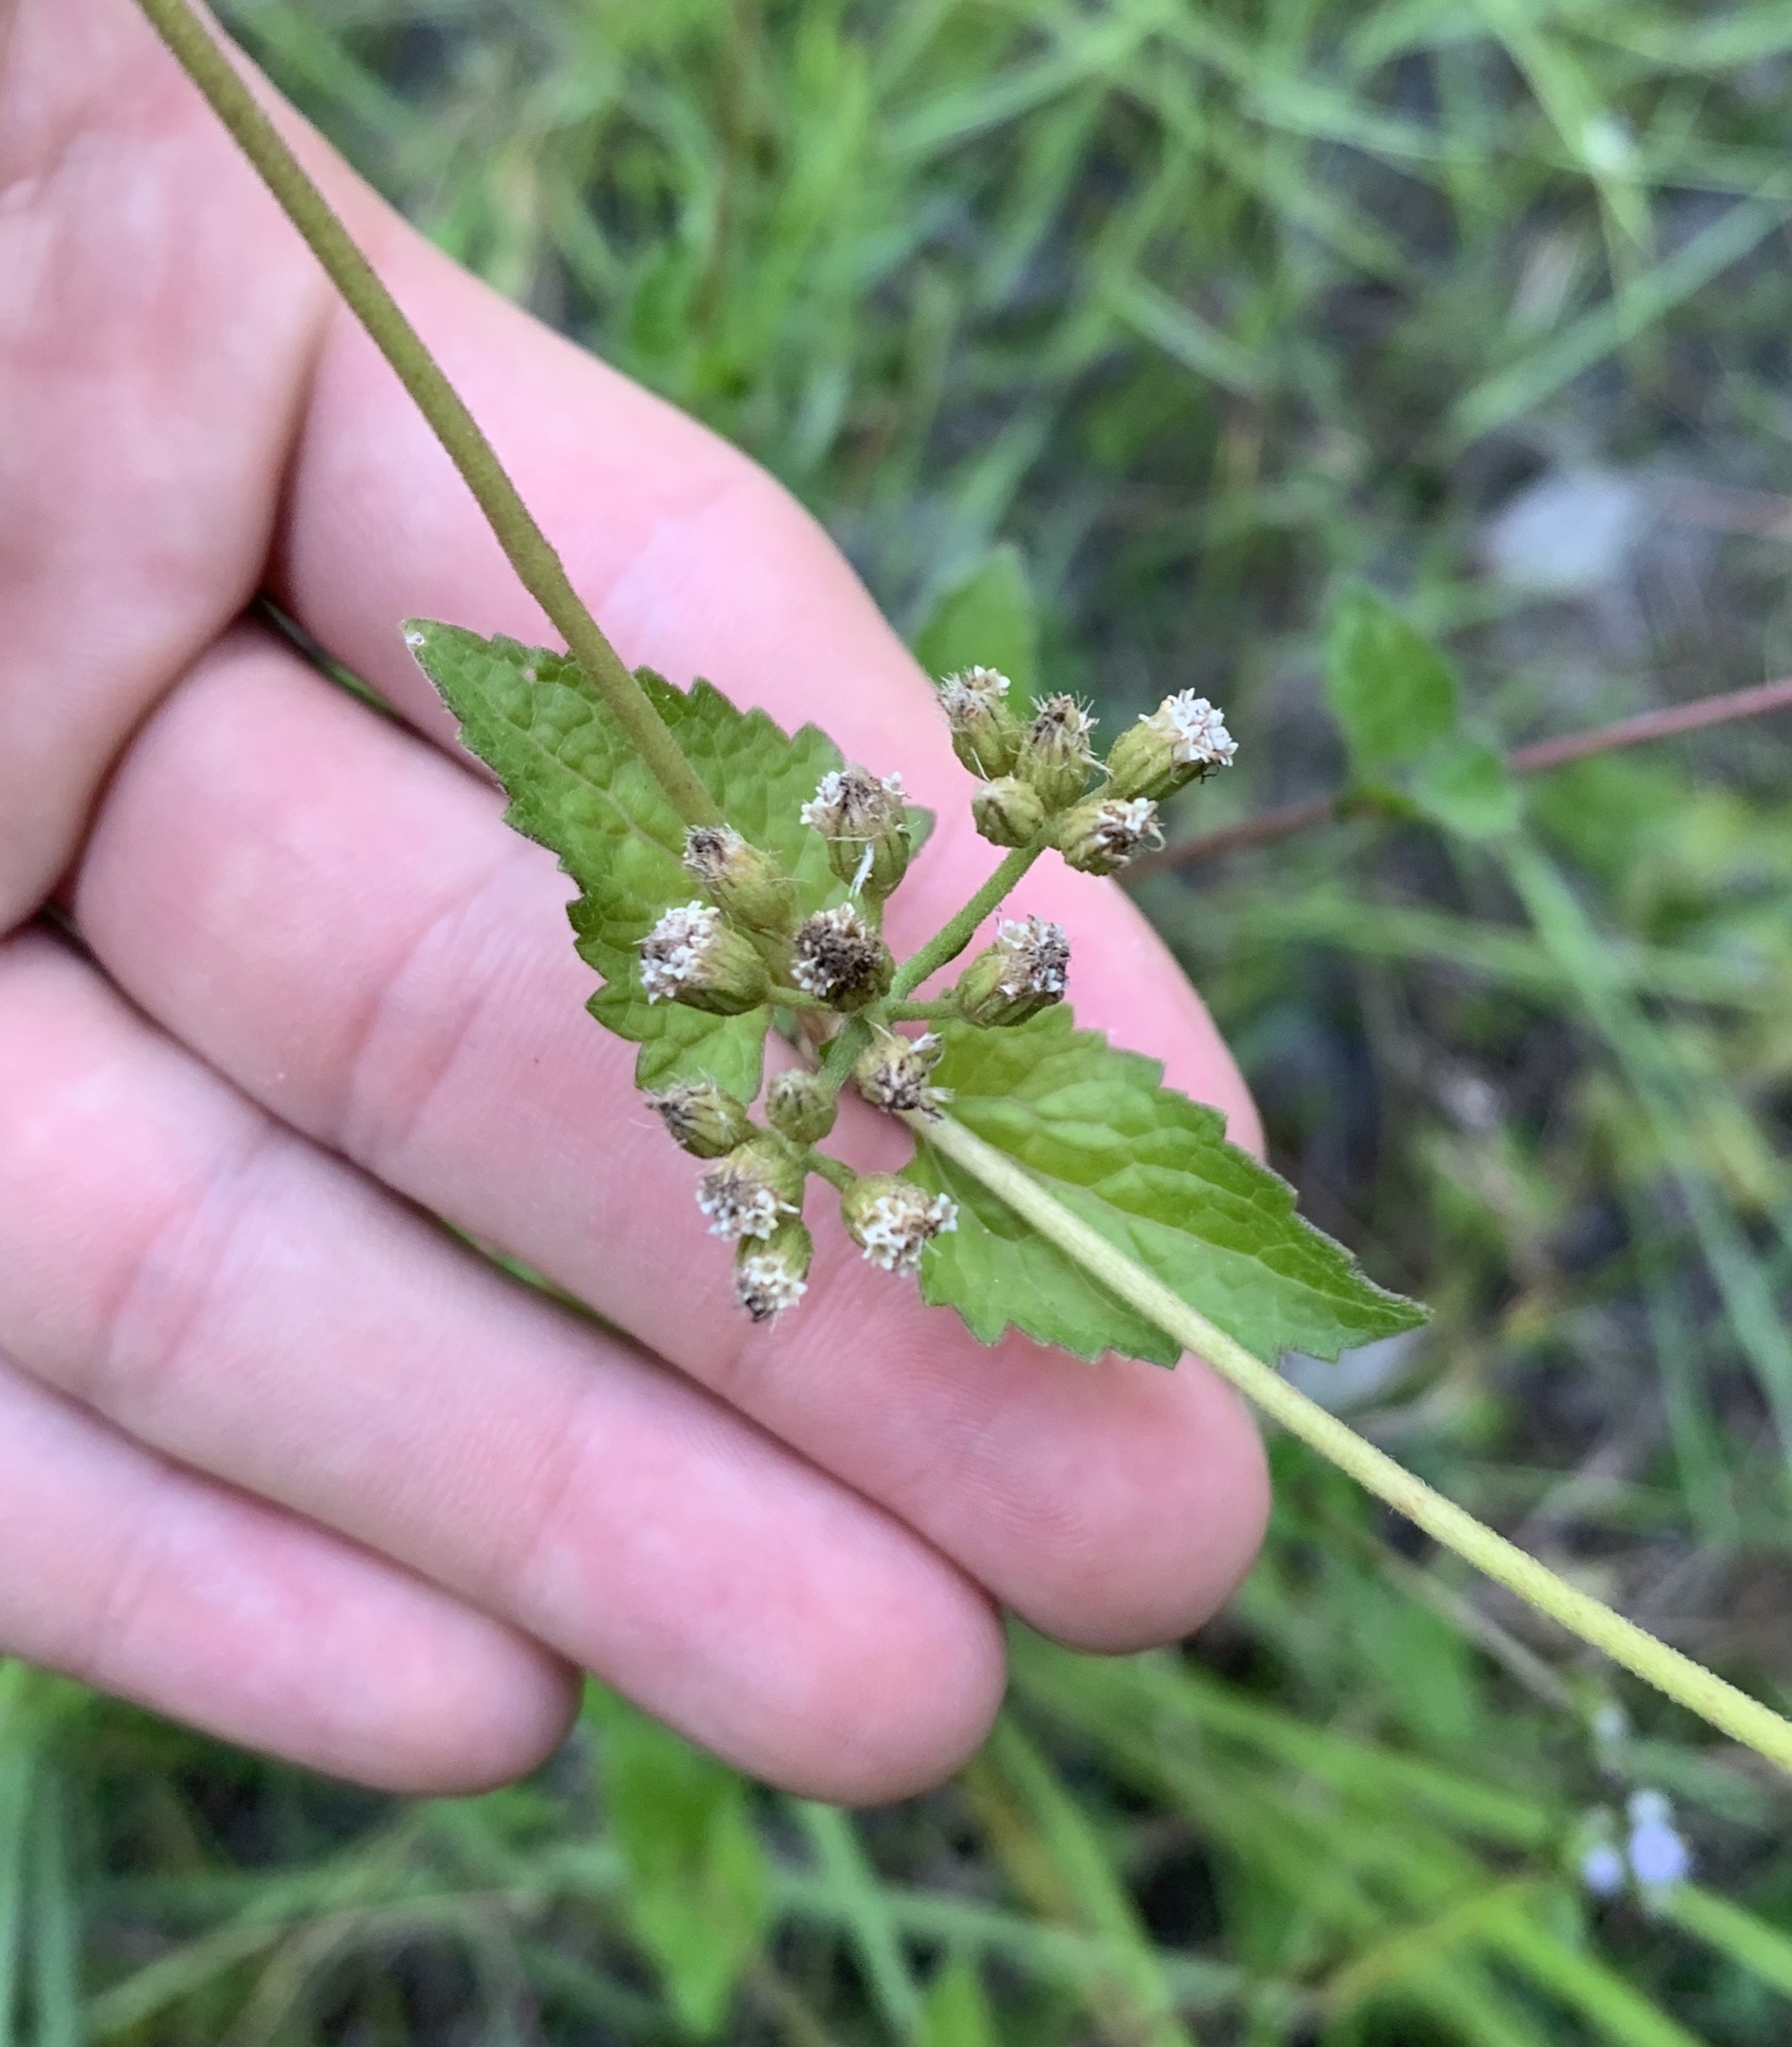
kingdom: Plantae
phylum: Tracheophyta
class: Magnoliopsida
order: Asterales
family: Asteraceae
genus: Conoclinium
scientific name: Conoclinium coelestinum
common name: Blue mistflower
